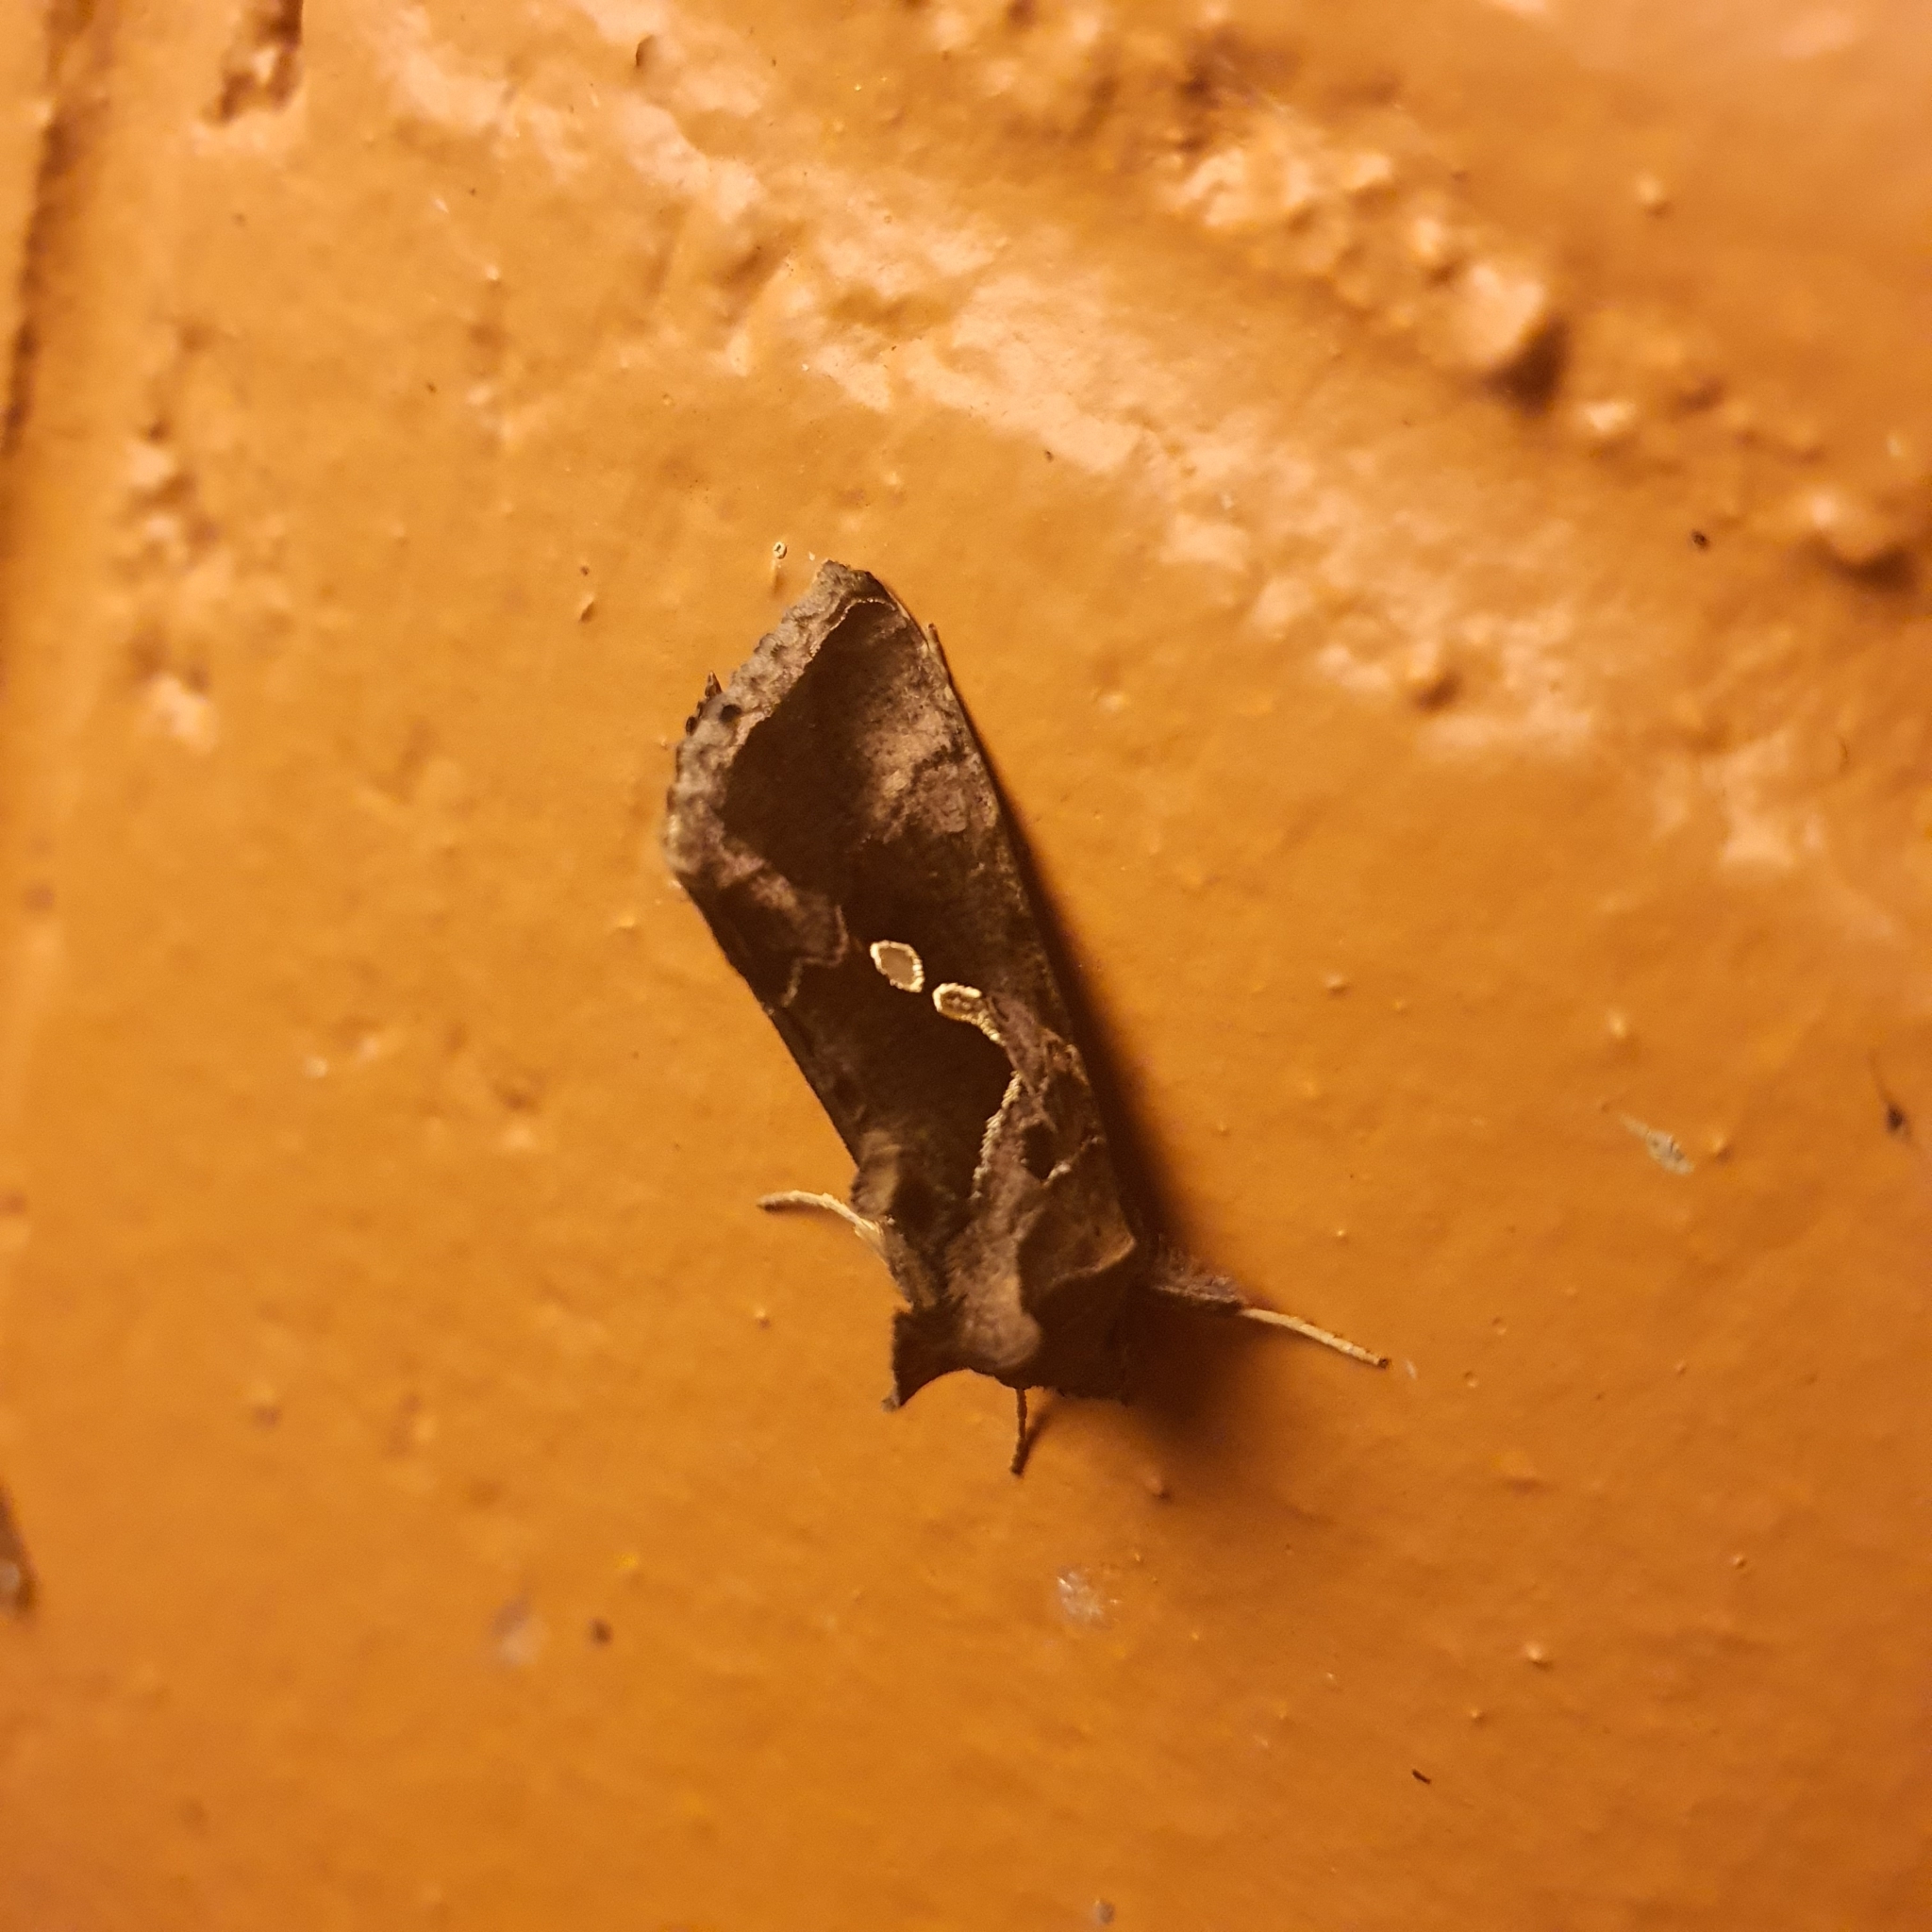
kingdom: Animalia
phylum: Arthropoda
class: Insecta
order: Lepidoptera
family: Noctuidae
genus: Chrysodeixis
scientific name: Chrysodeixis eriosoma
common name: Green garden looper
